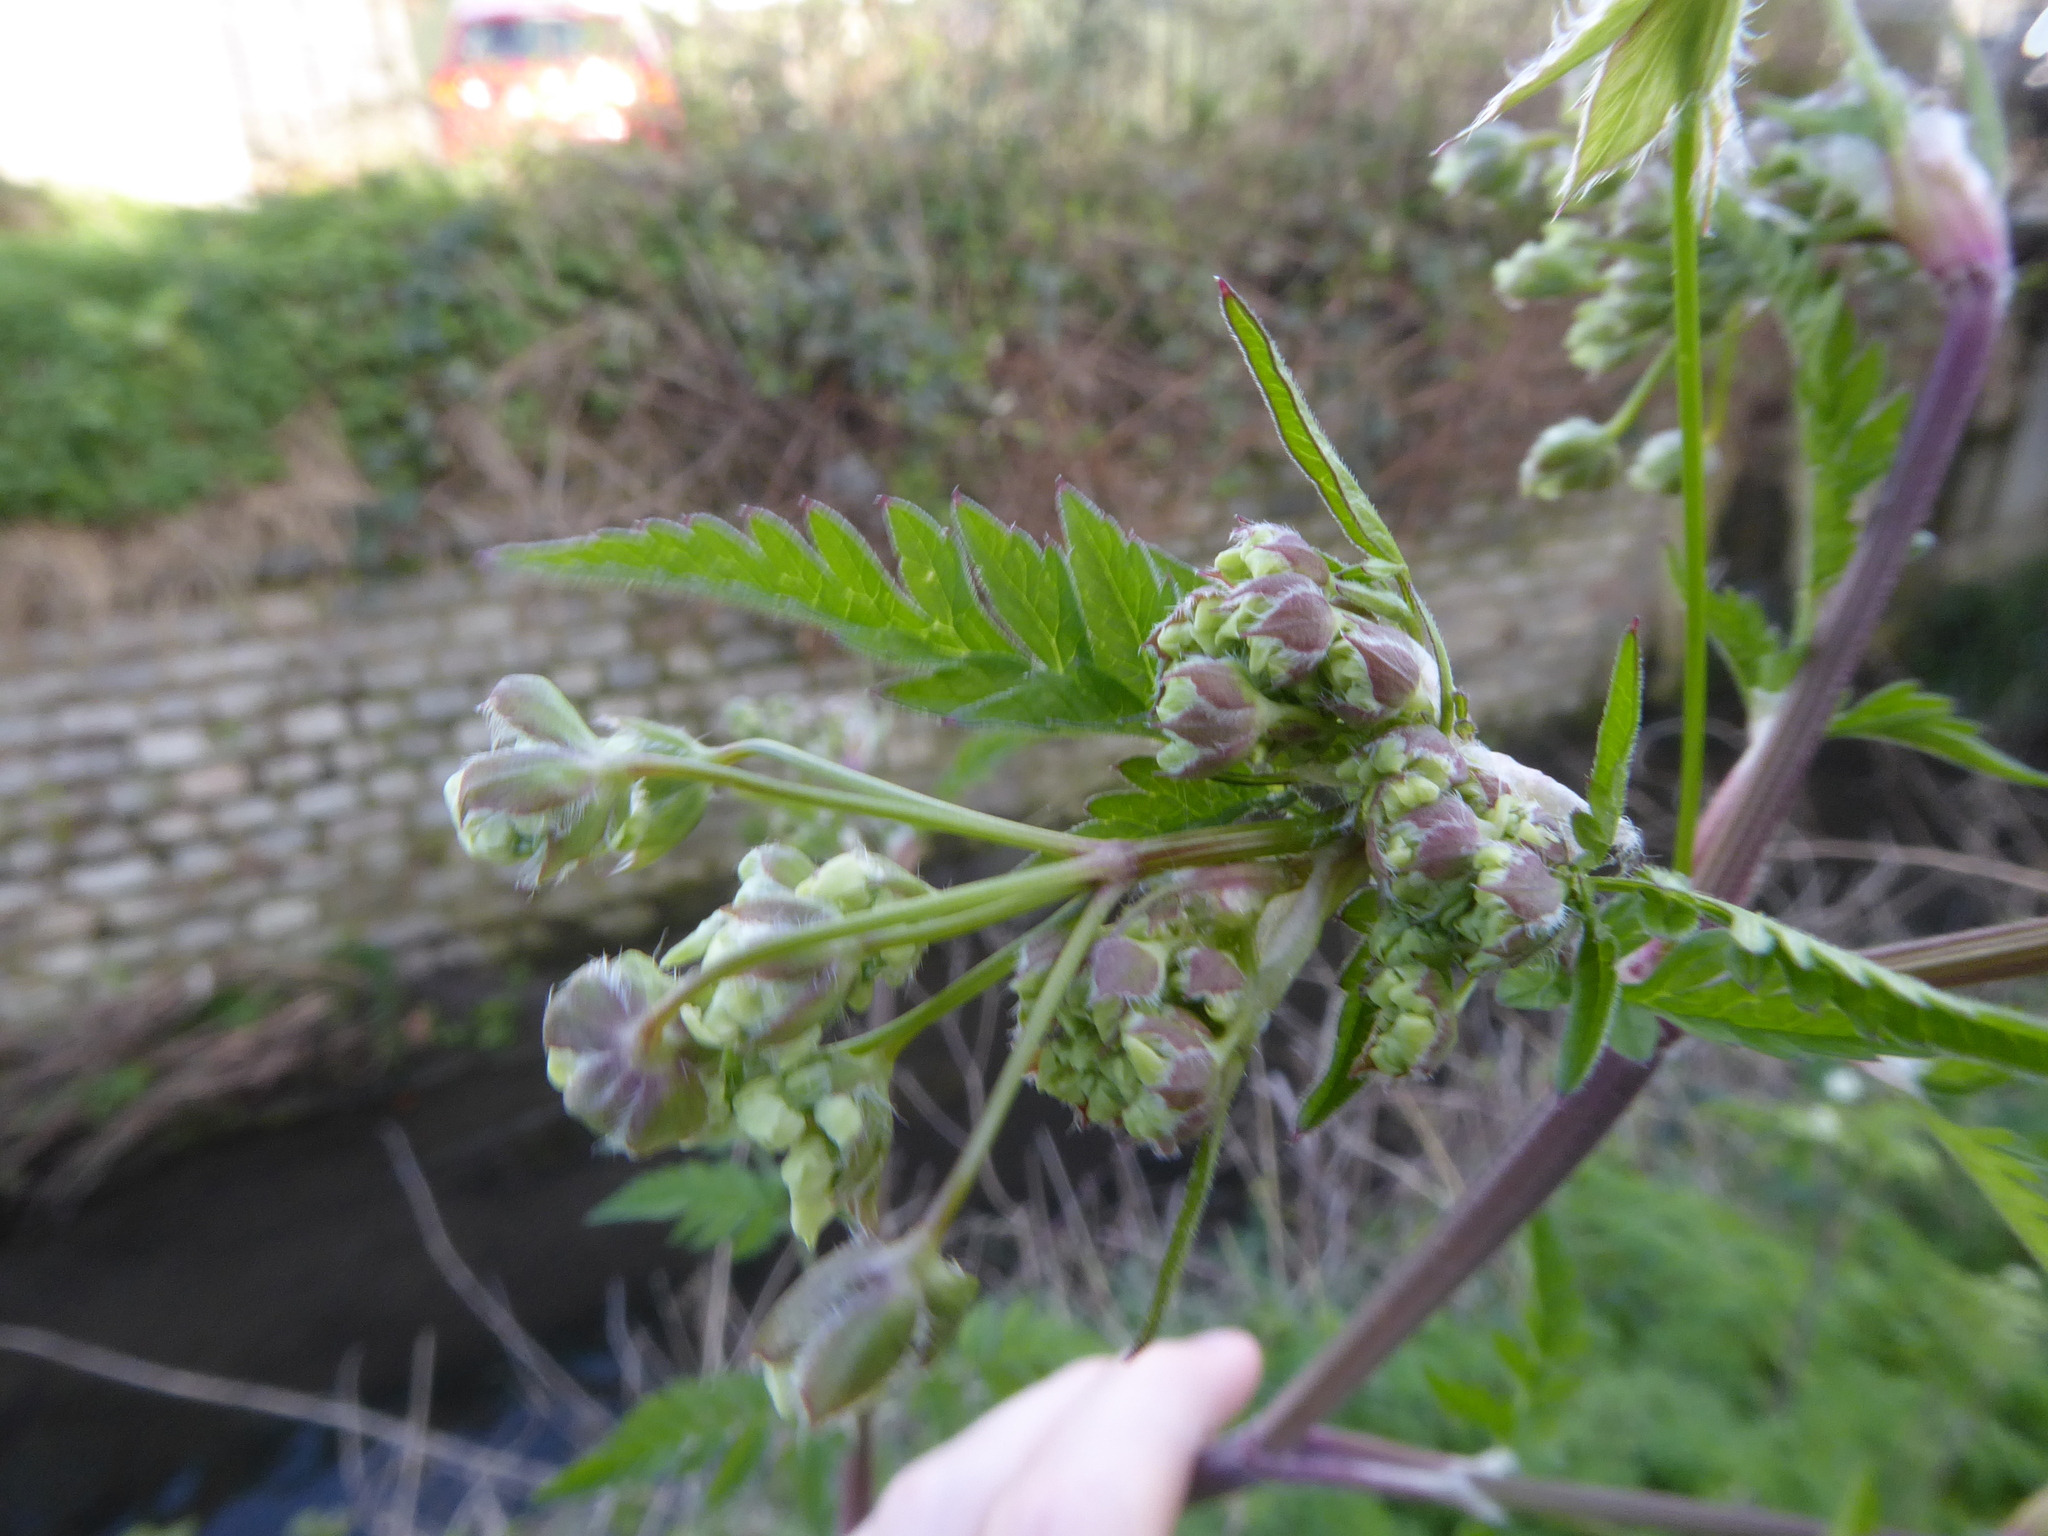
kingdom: Plantae
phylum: Tracheophyta
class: Magnoliopsida
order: Apiales
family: Apiaceae
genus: Anthriscus
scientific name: Anthriscus sylvestris
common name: Cow parsley
